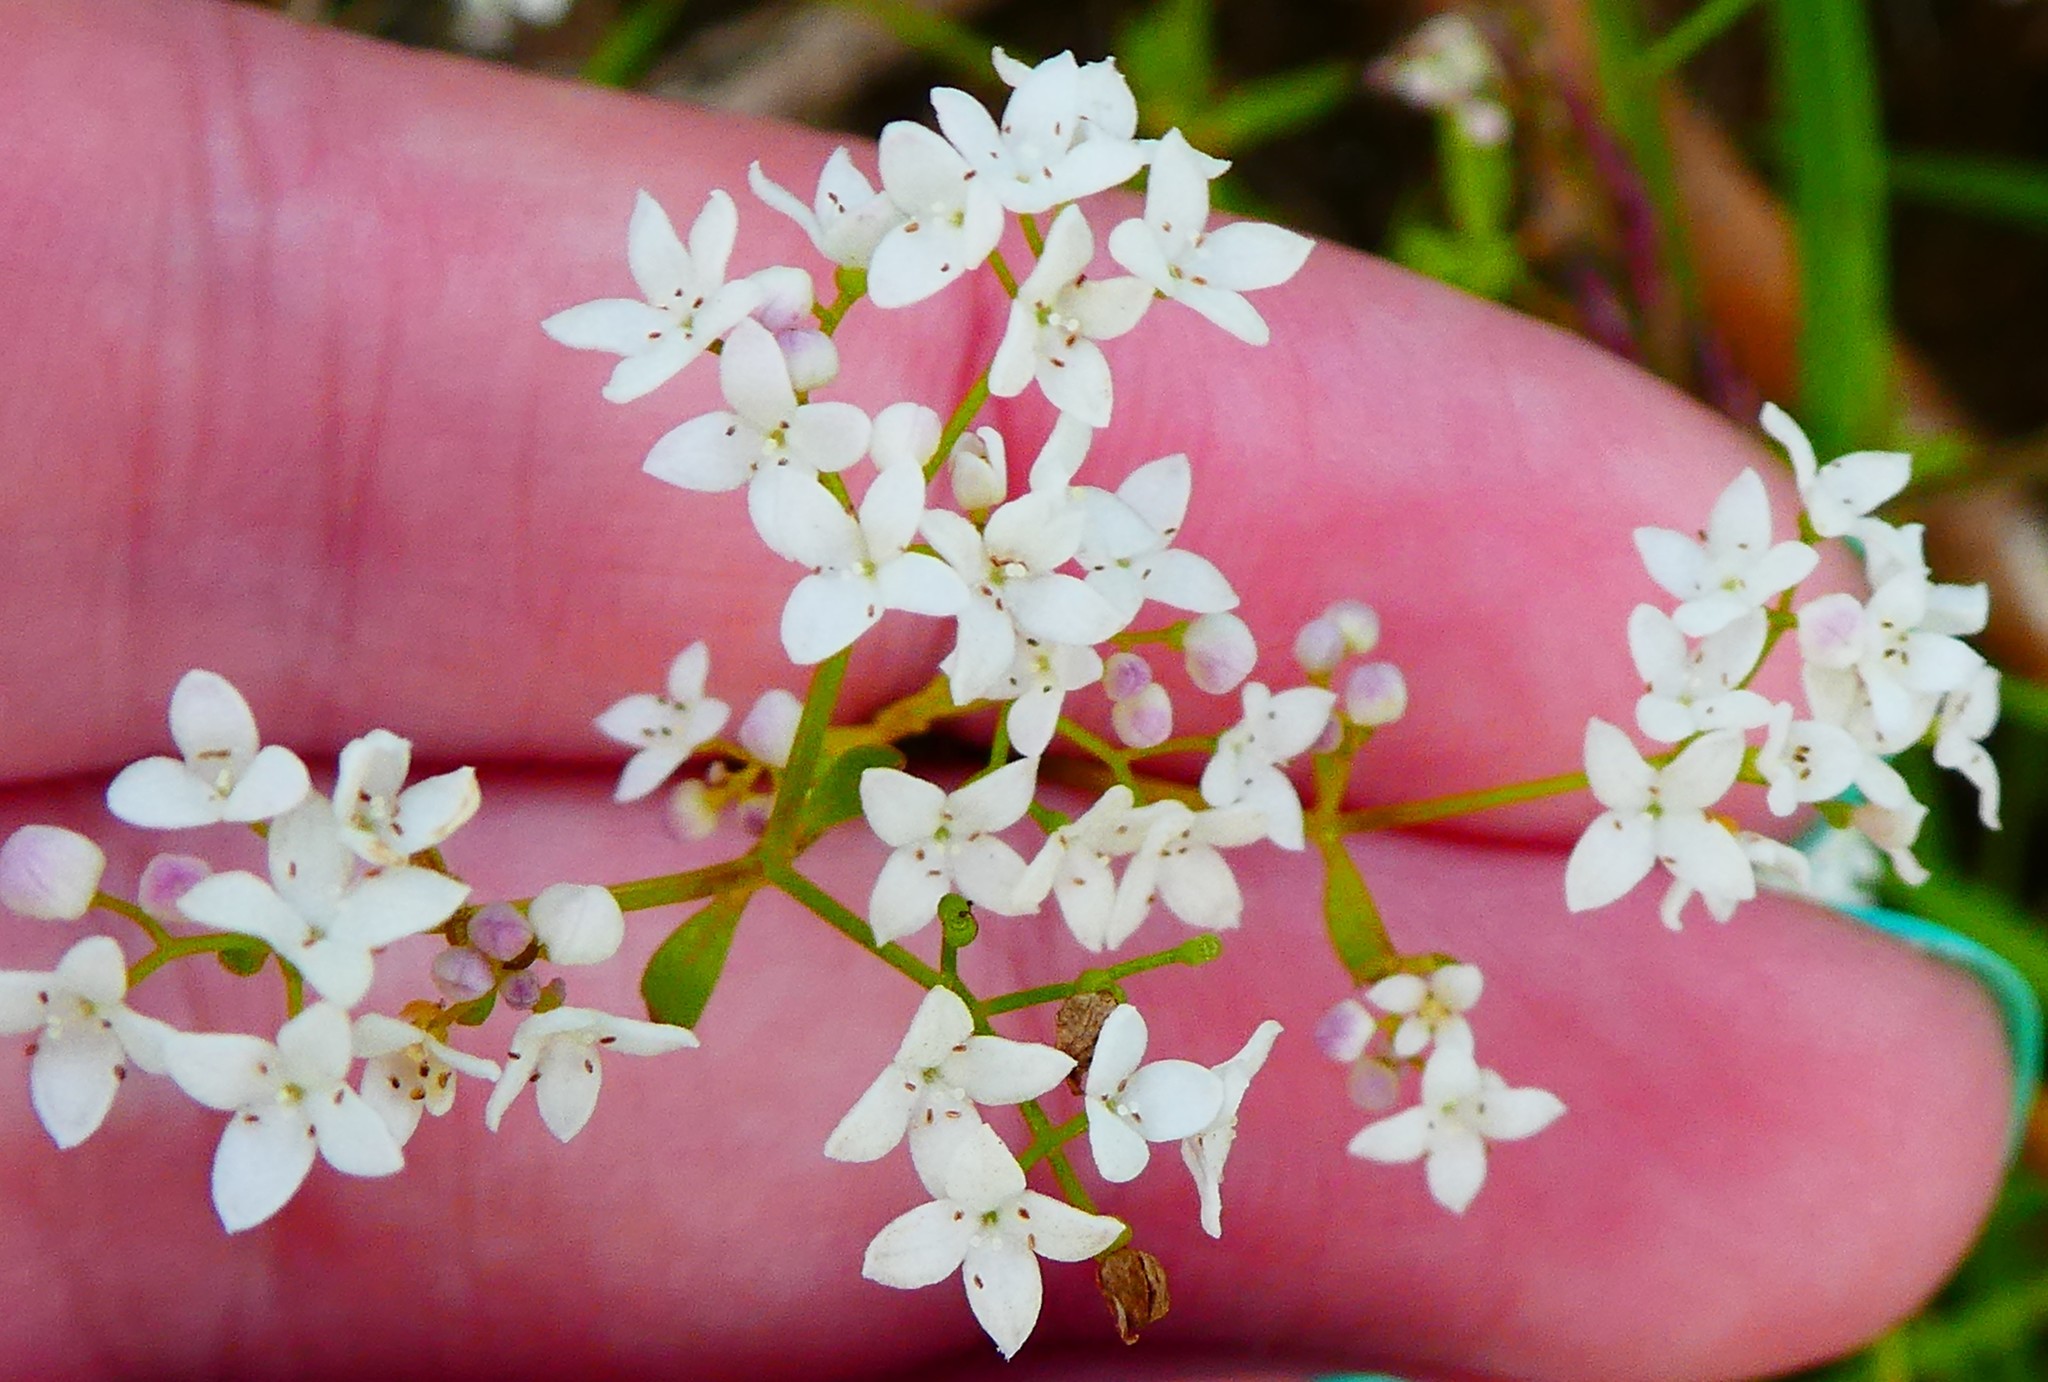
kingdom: Plantae
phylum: Tracheophyta
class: Magnoliopsida
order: Gentianales
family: Rubiaceae
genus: Galium
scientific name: Galium palustre
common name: Common marsh-bedstraw
